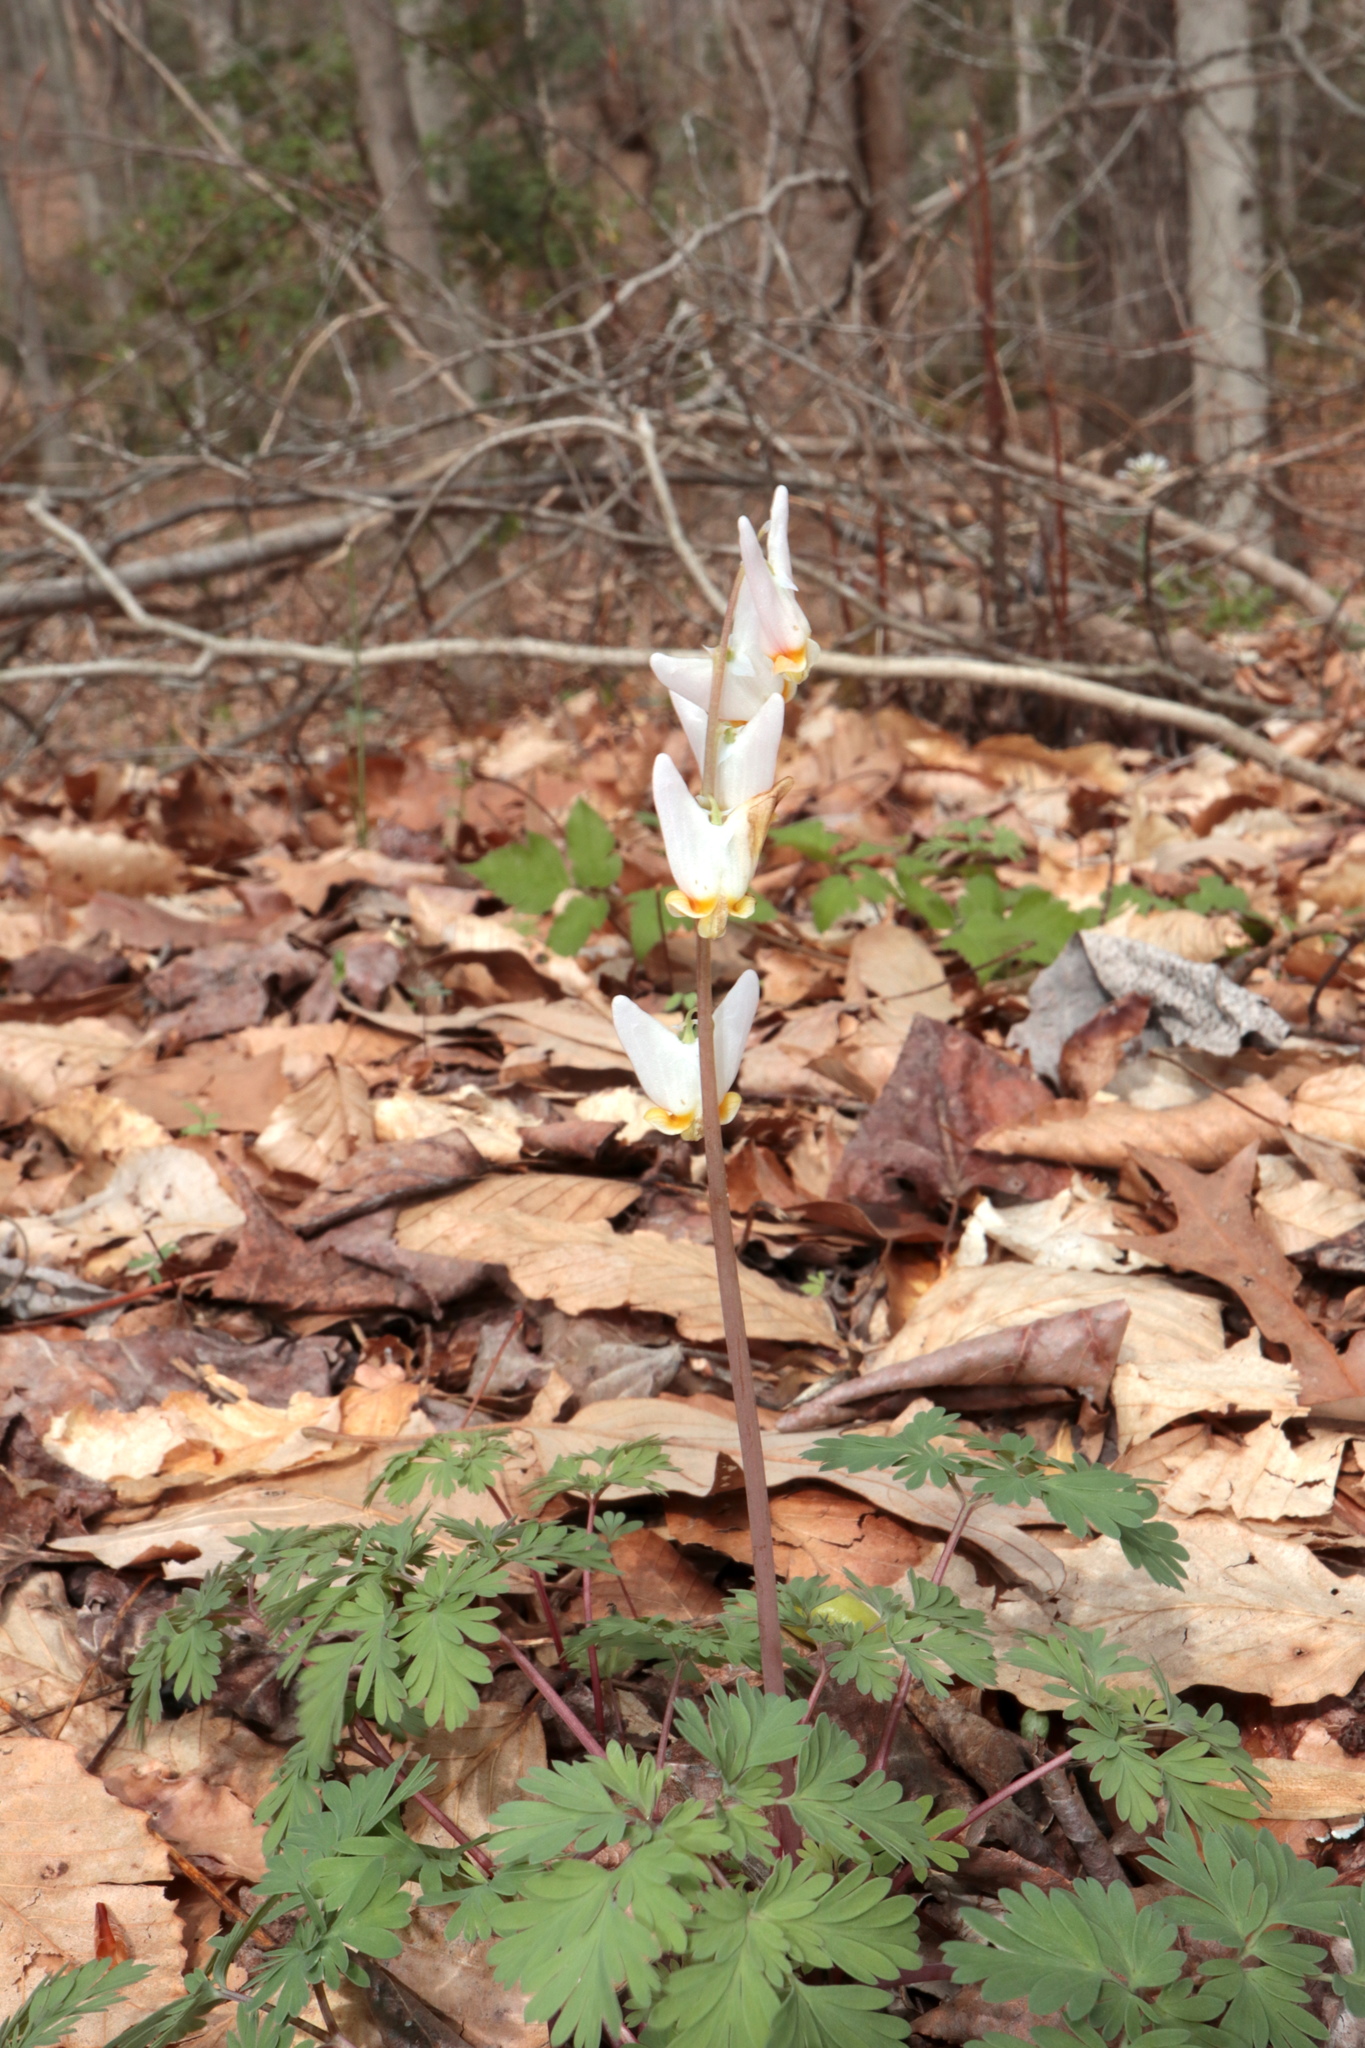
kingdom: Plantae
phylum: Tracheophyta
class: Magnoliopsida
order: Ranunculales
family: Papaveraceae
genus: Dicentra
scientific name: Dicentra cucullaria
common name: Dutchman's breeches
